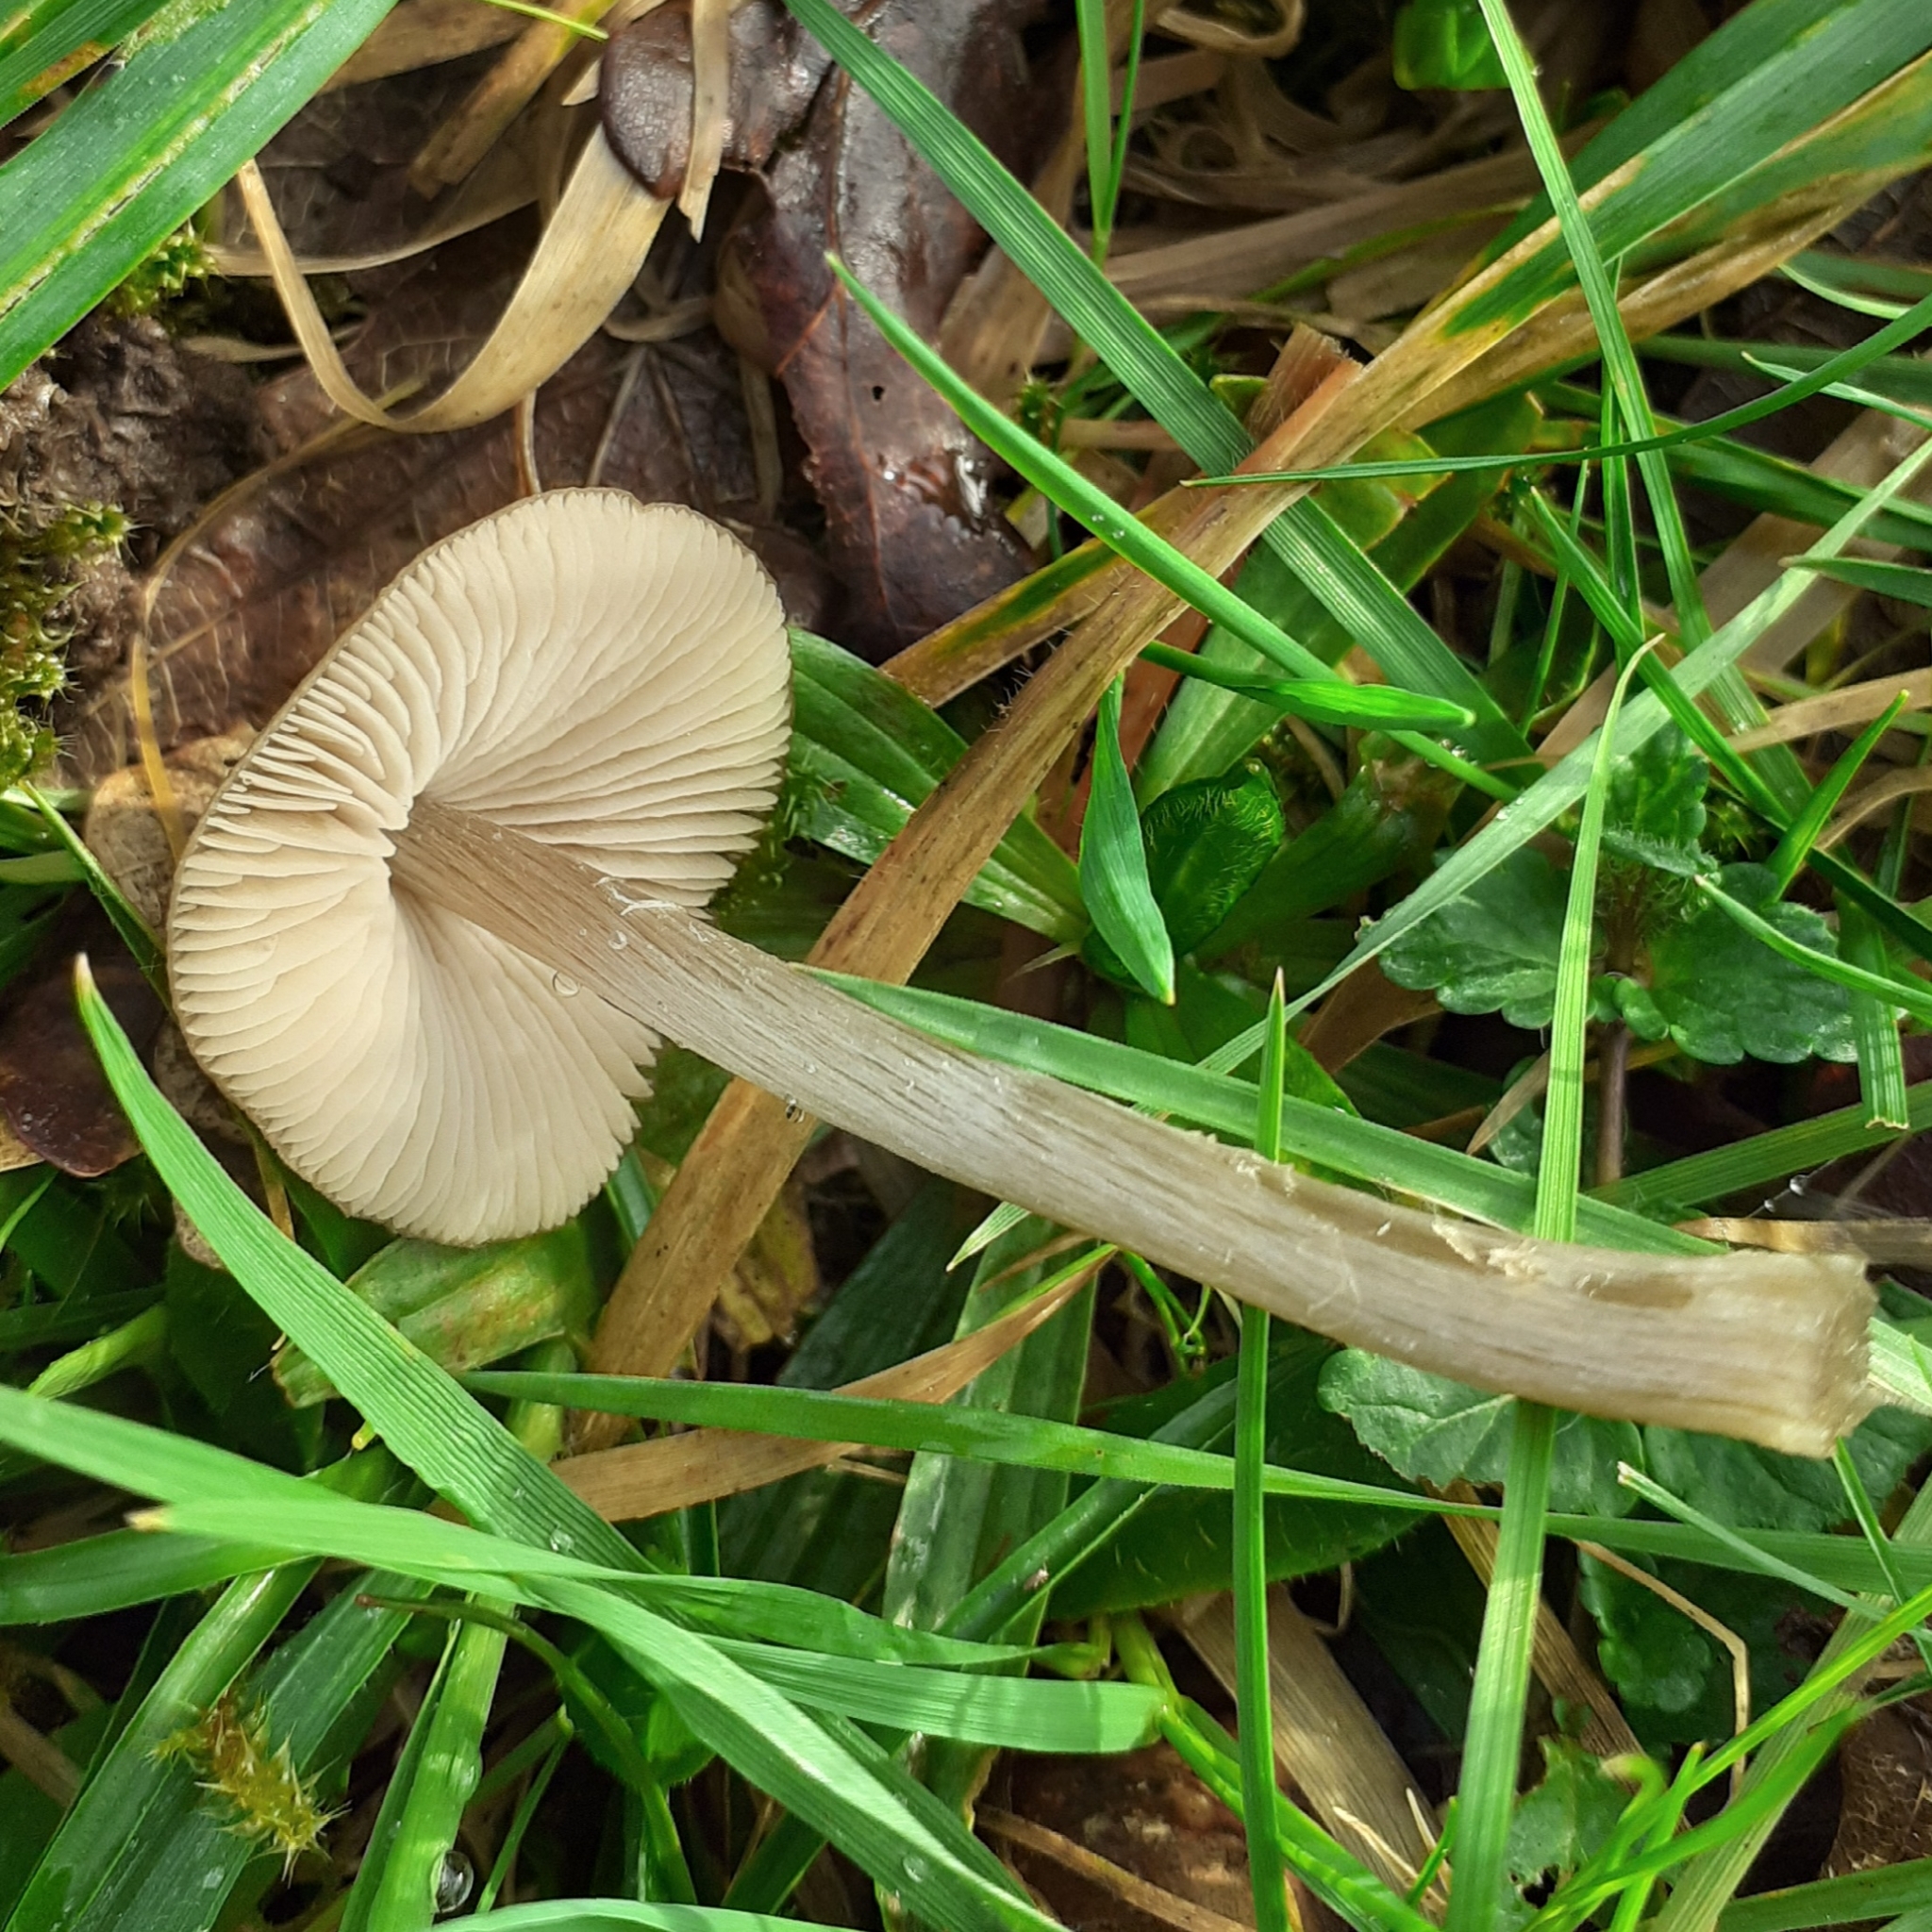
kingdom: Fungi
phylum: Basidiomycota
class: Agaricomycetes
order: Agaricales
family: Entolomataceae
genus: Entoloma
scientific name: Entoloma conferendum
